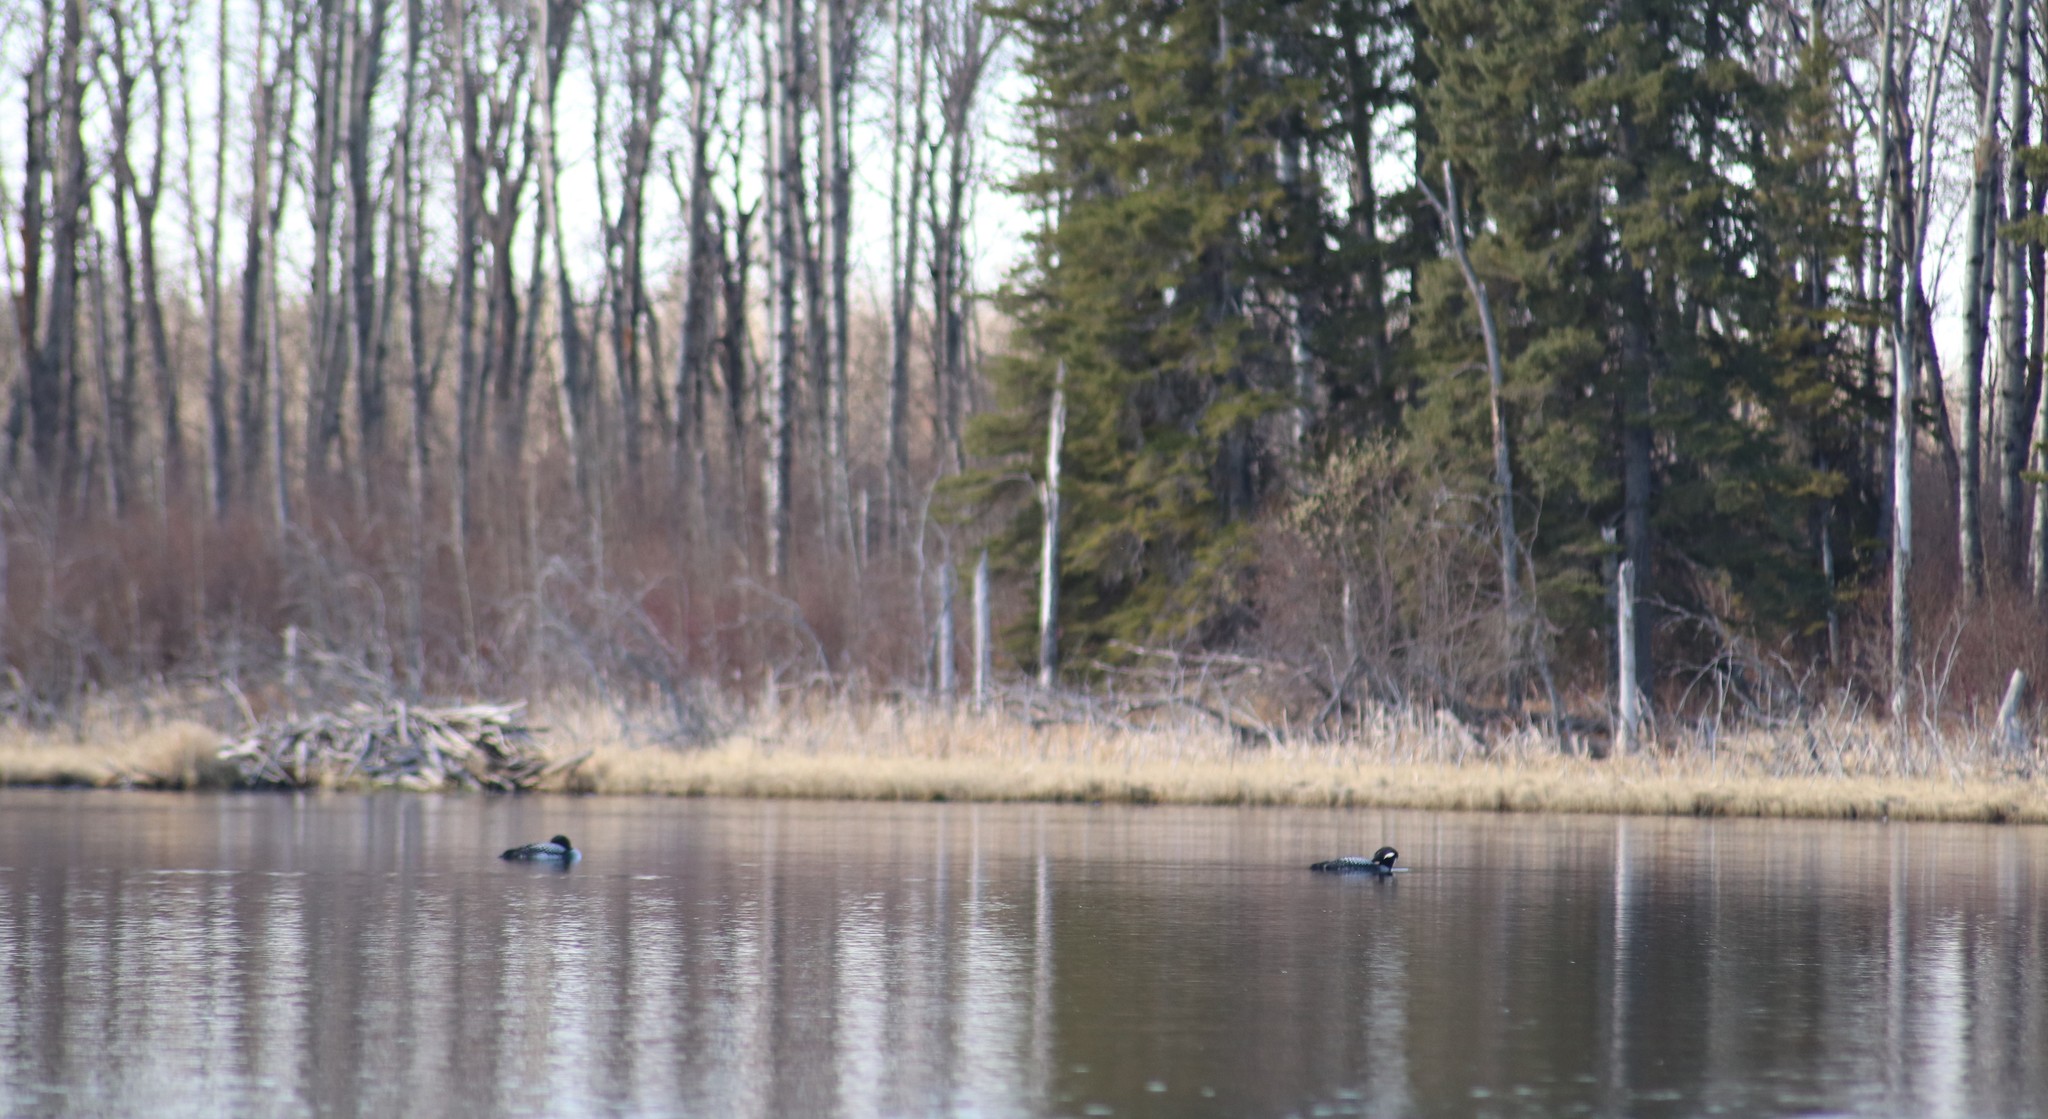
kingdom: Animalia
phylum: Chordata
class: Aves
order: Gaviiformes
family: Gaviidae
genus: Gavia
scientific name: Gavia immer
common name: Common loon
